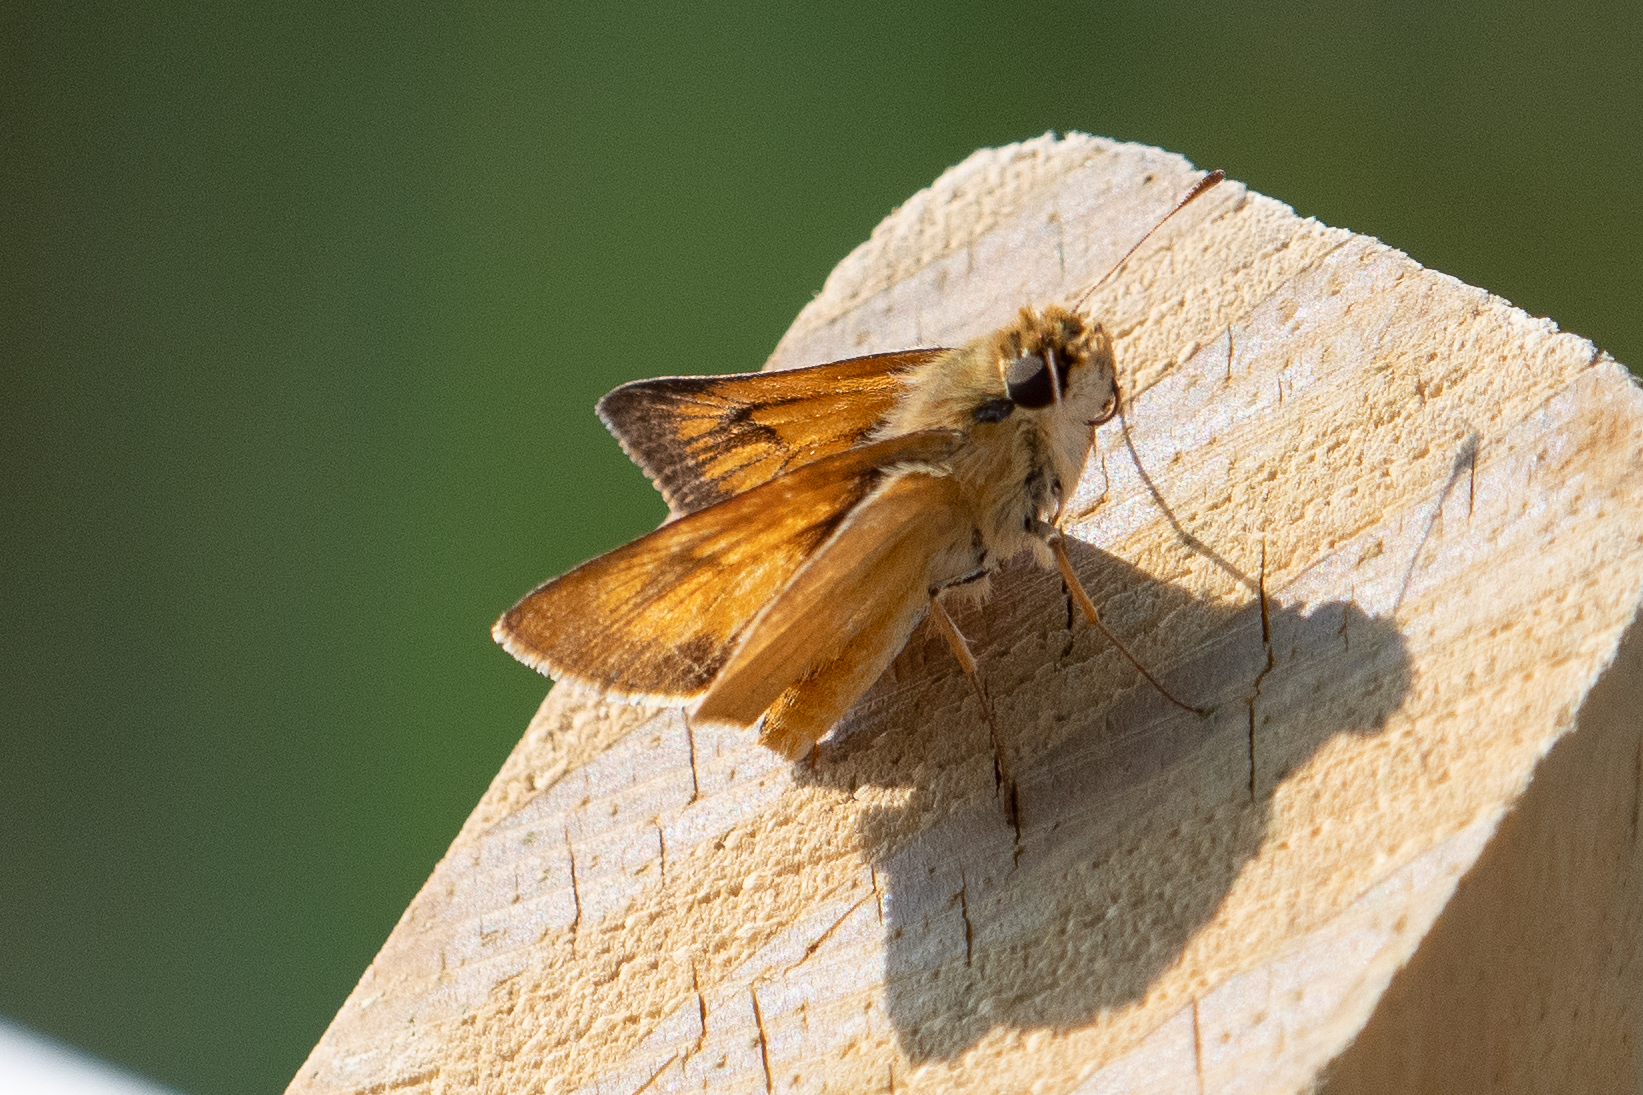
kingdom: Animalia
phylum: Arthropoda
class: Insecta
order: Lepidoptera
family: Hesperiidae
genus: Atrytone
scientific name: Atrytone delaware
